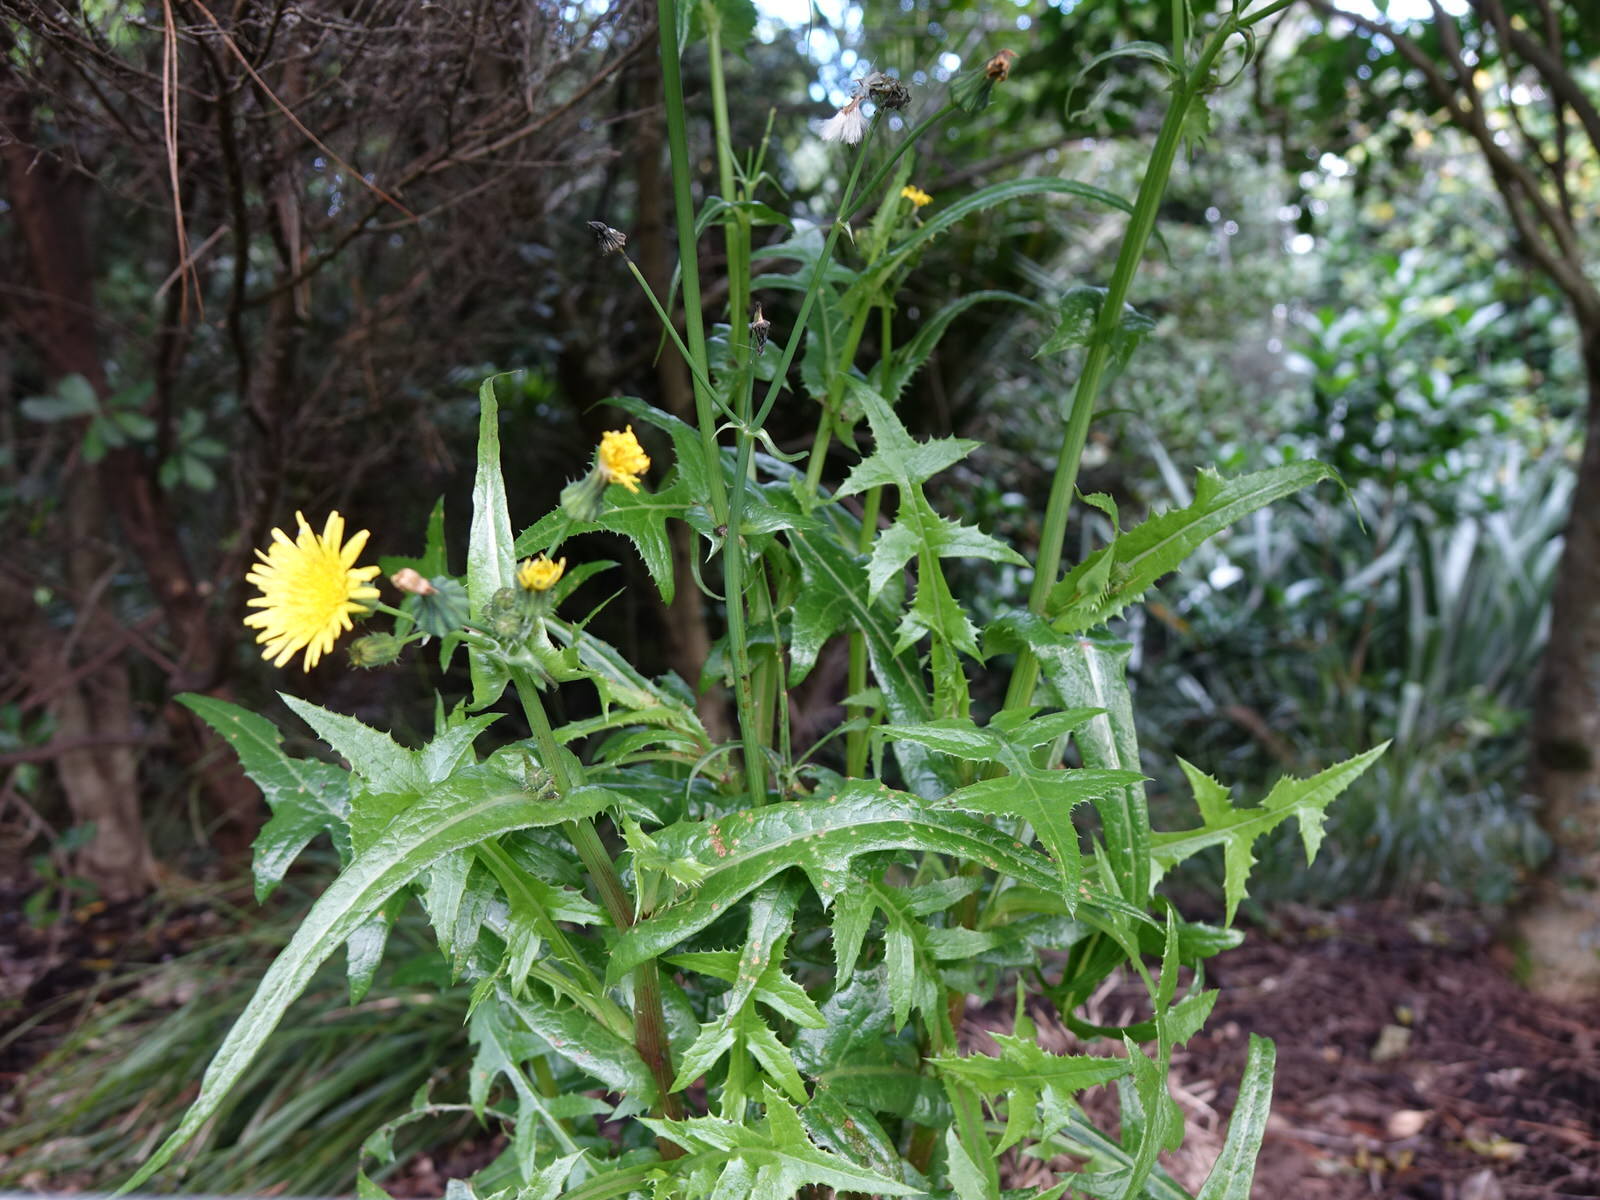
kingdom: Plantae
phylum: Tracheophyta
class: Magnoliopsida
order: Asterales
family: Asteraceae
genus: Sonchus
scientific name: Sonchus oleraceus
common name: Common sowthistle
